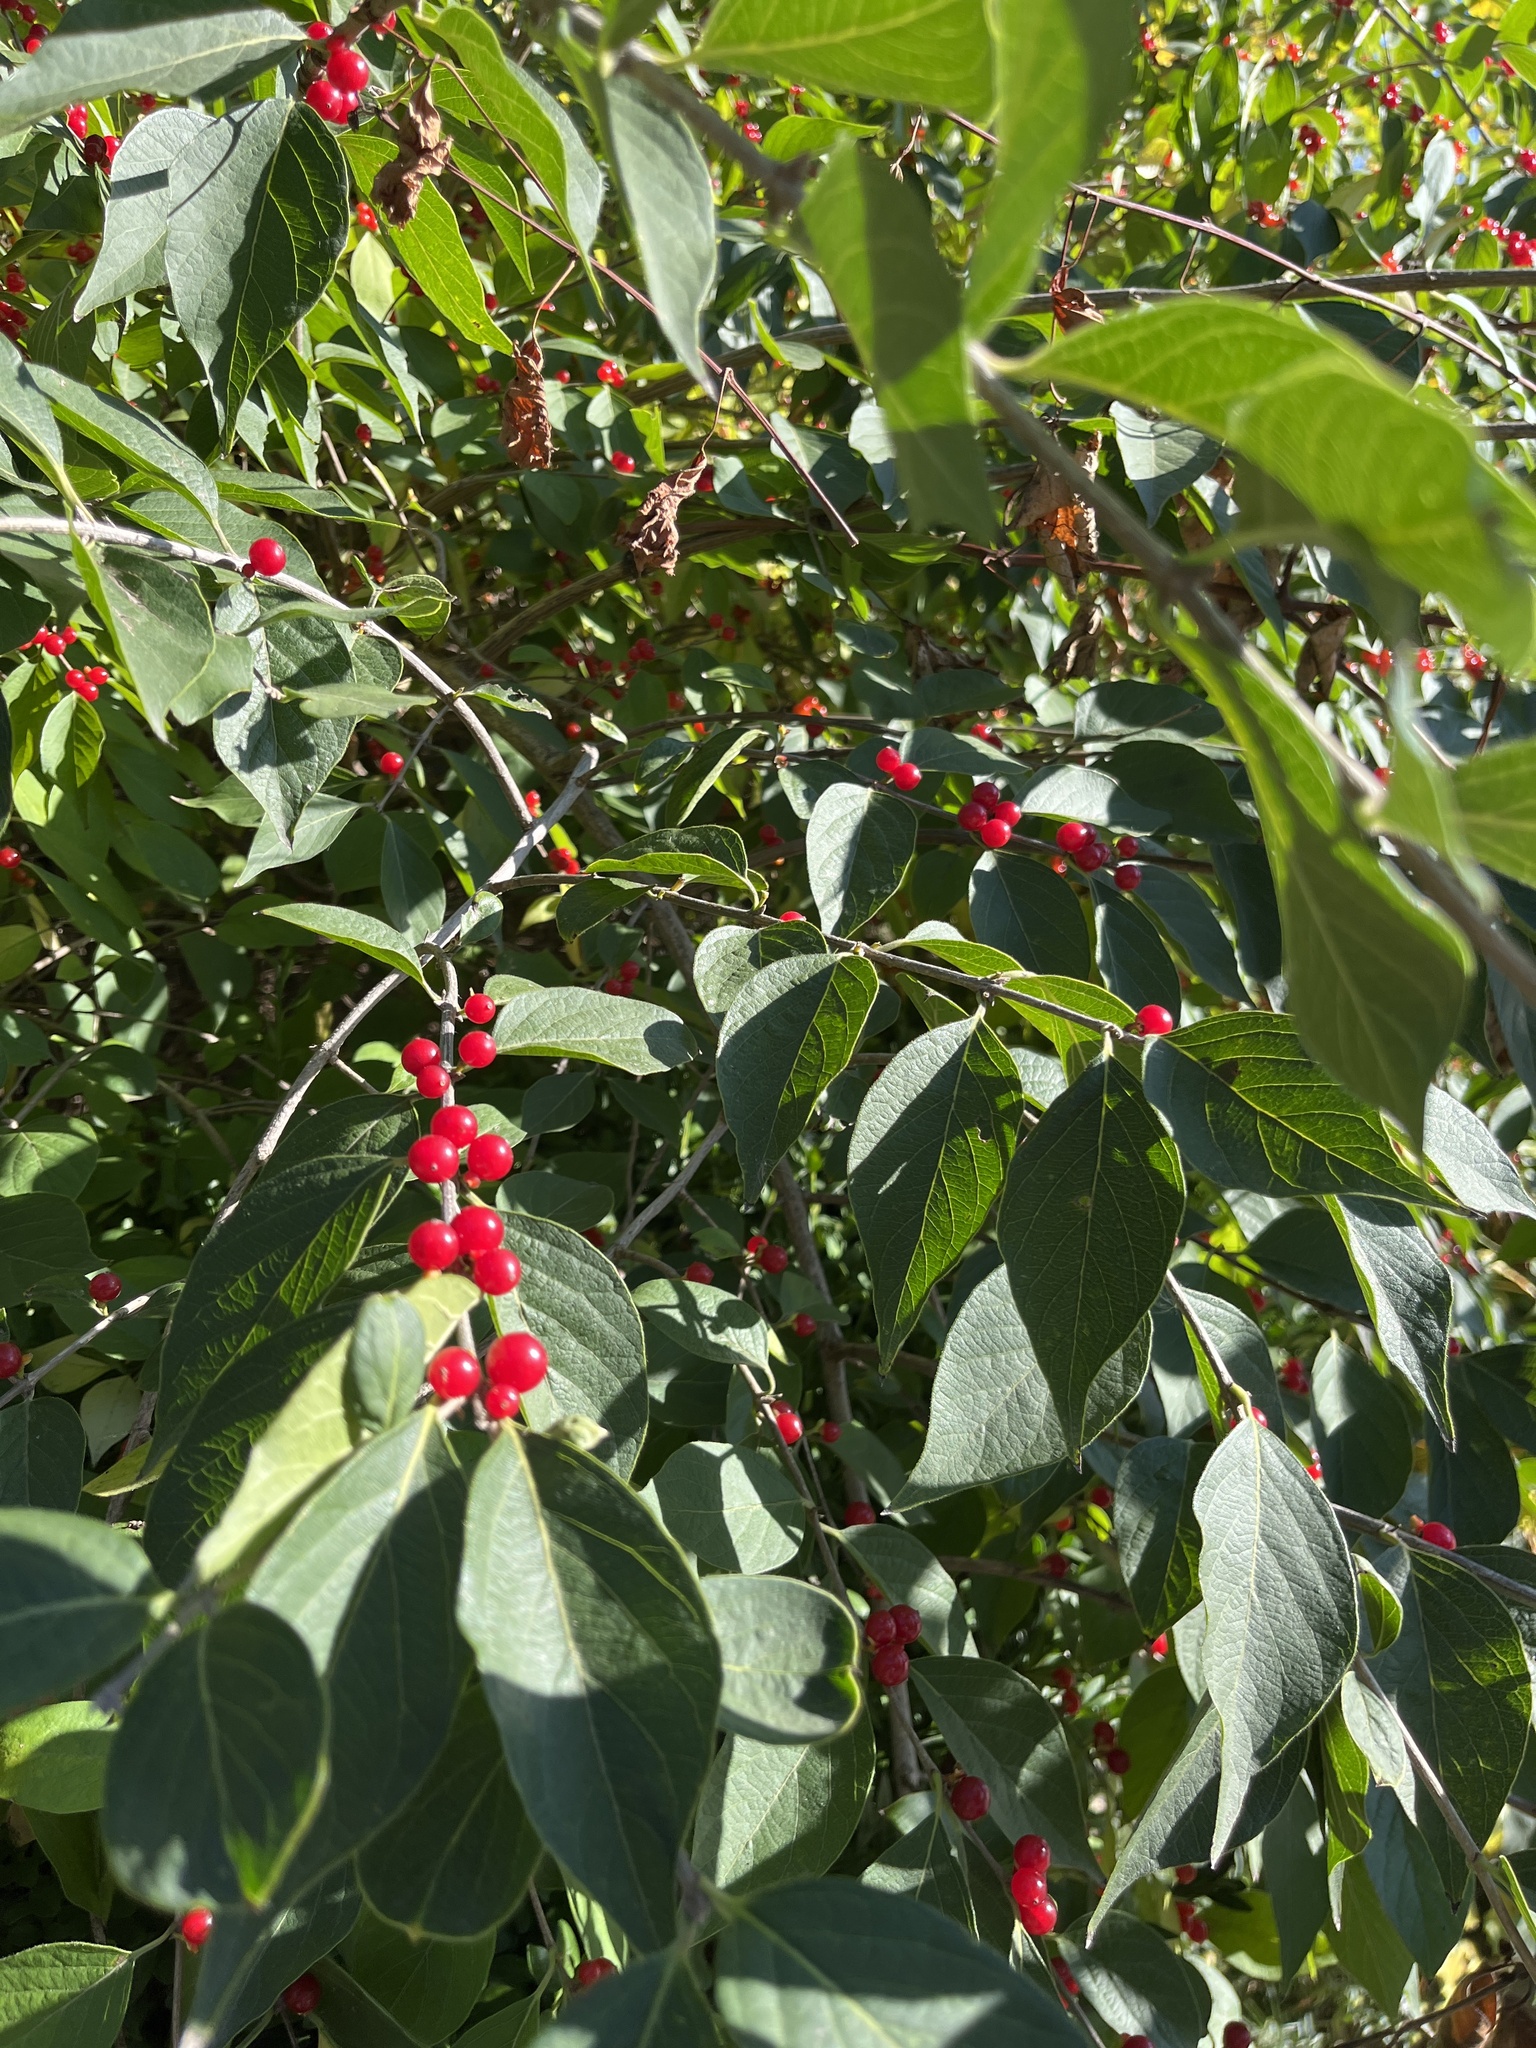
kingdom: Plantae
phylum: Tracheophyta
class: Magnoliopsida
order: Dipsacales
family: Caprifoliaceae
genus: Lonicera
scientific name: Lonicera maackii
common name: Amur honeysuckle
